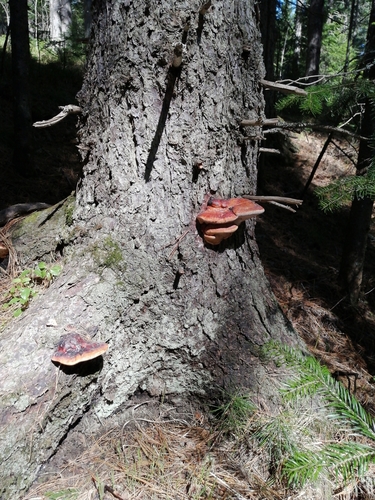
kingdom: Fungi
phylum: Basidiomycota
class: Agaricomycetes
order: Polyporales
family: Fomitopsidaceae
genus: Fomitopsis
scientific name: Fomitopsis pinicola
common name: Red-belted bracket
